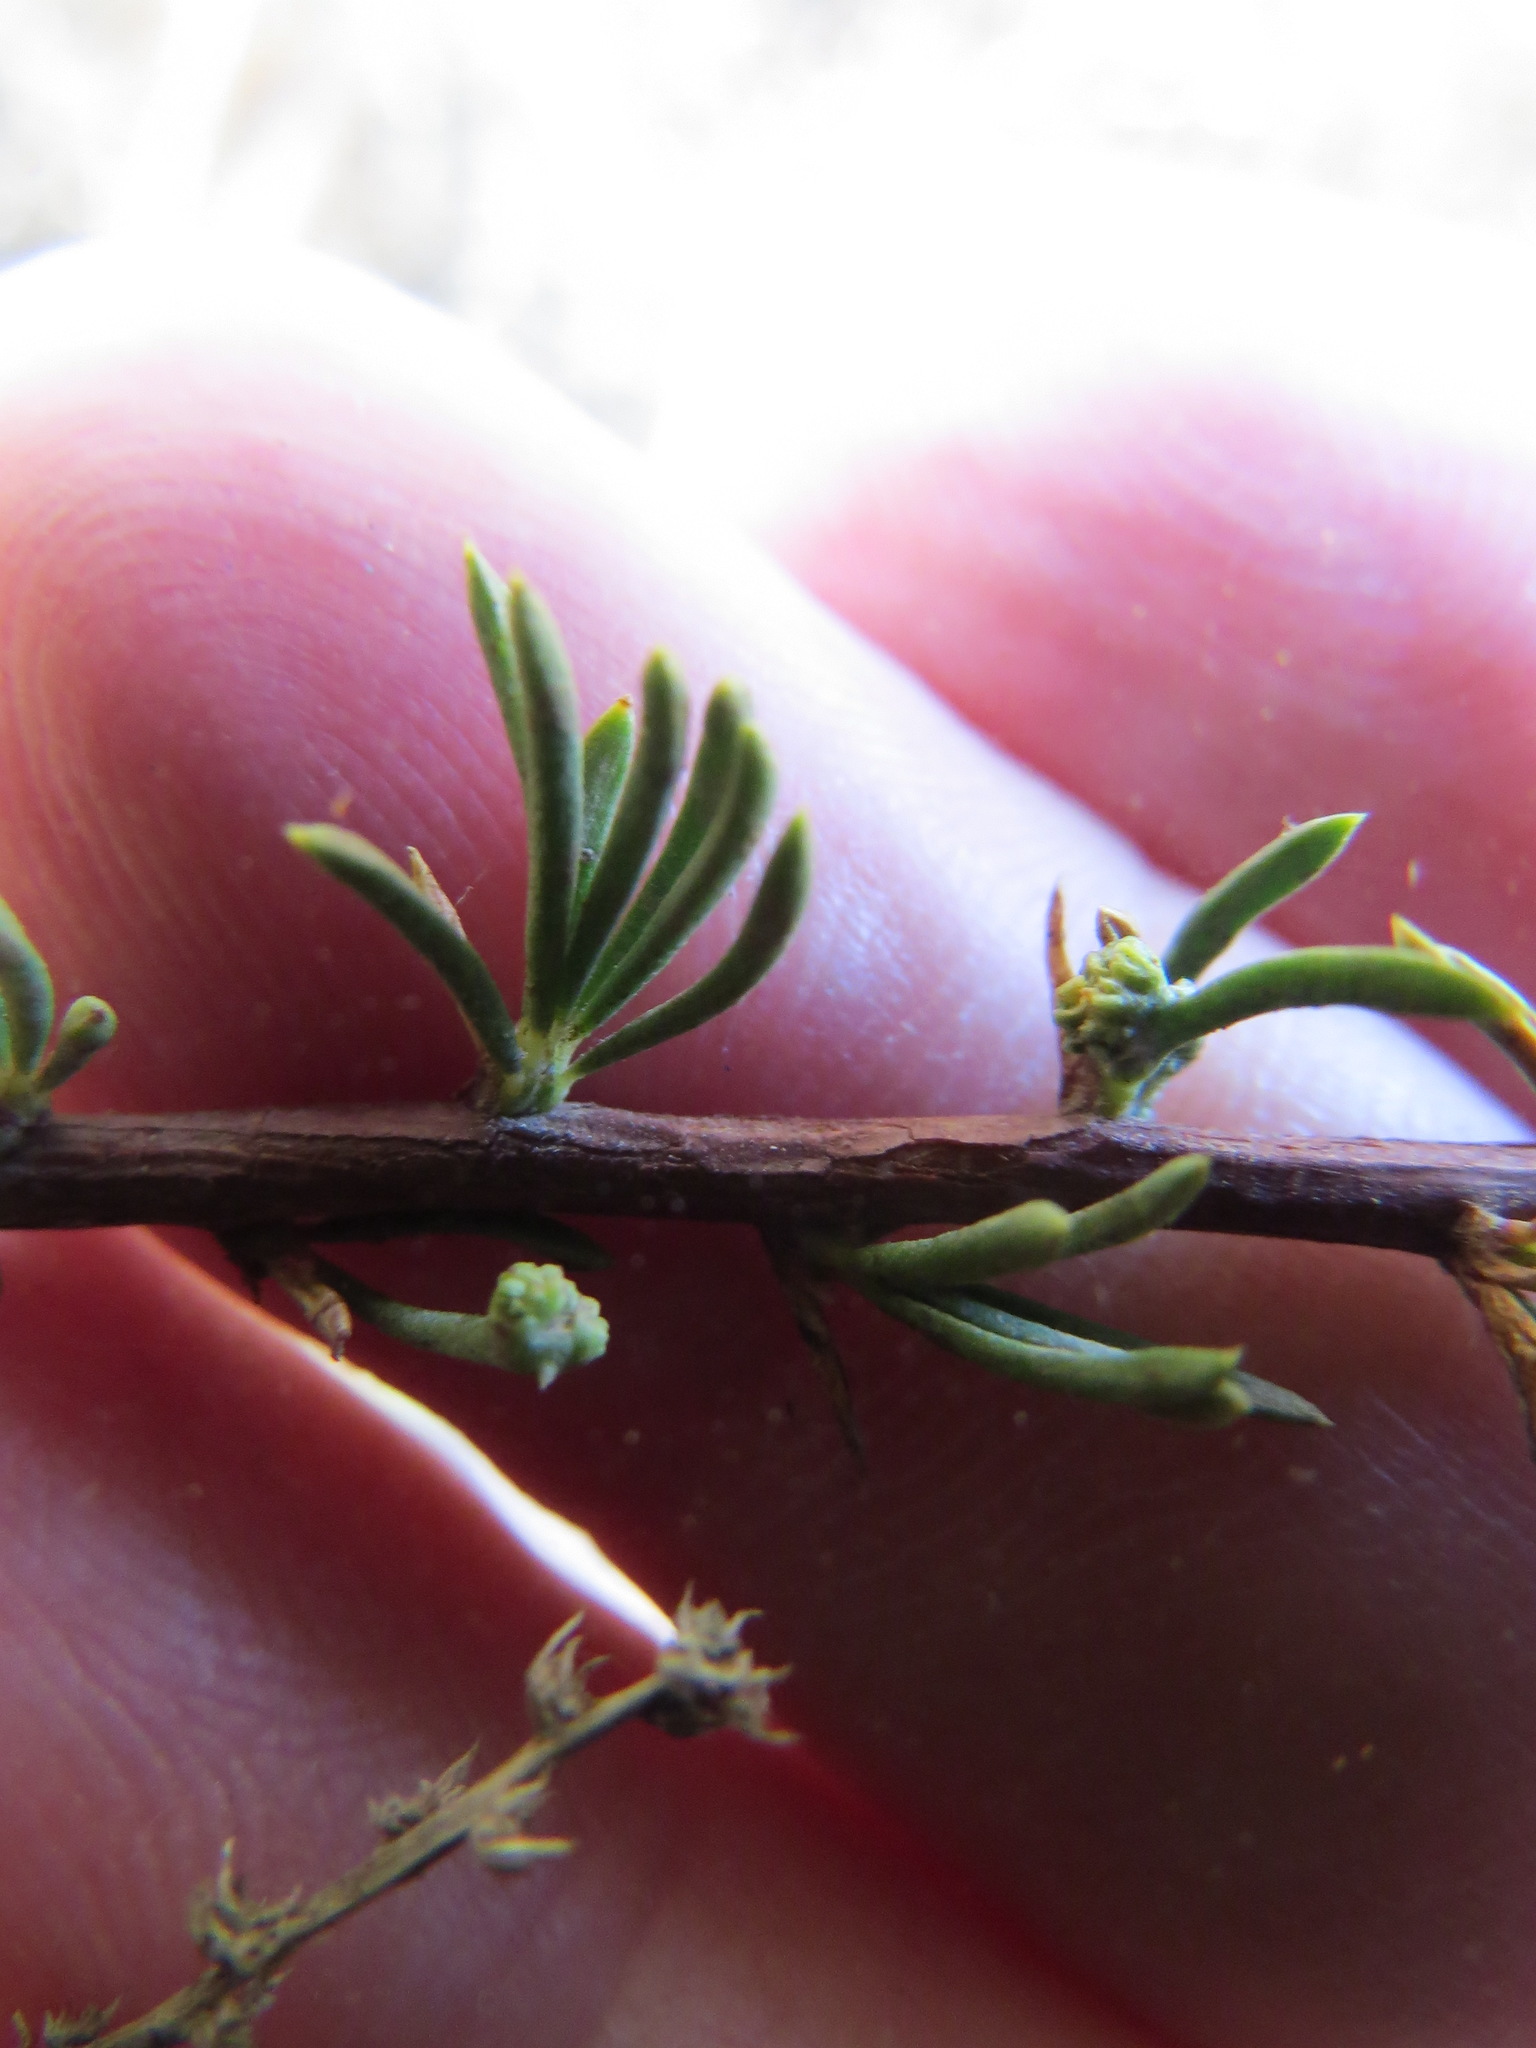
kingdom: Animalia
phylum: Arthropoda
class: Arachnida
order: Trombidiformes
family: Eriophyidae
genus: Eriophyes
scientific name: Eriophyes
